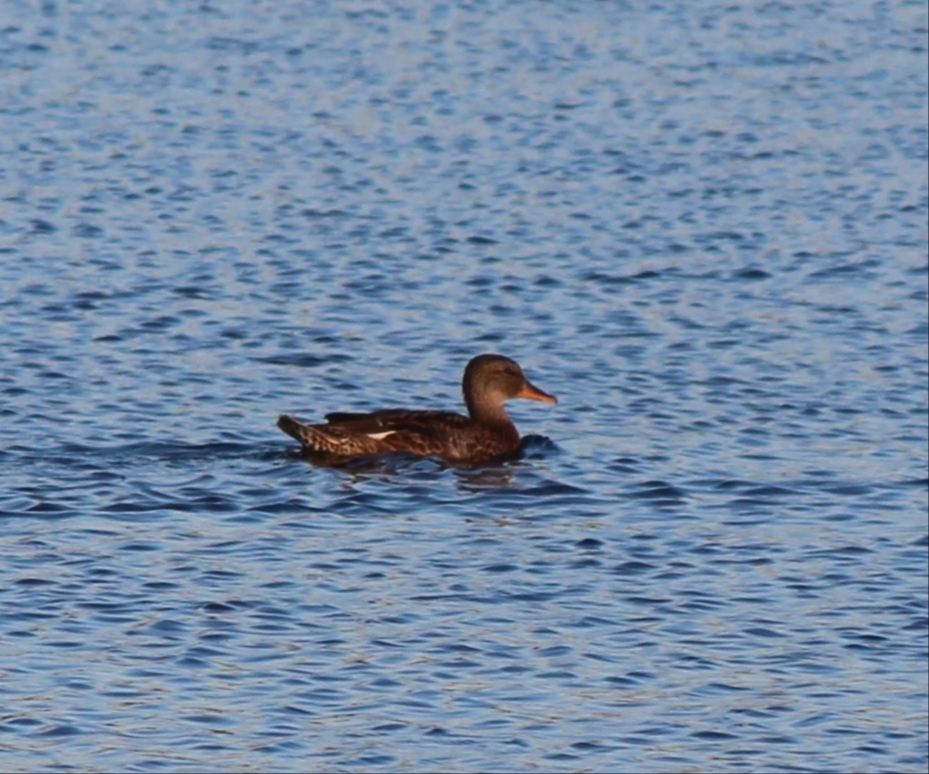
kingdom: Animalia
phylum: Chordata
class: Aves
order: Anseriformes
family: Anatidae
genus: Mareca
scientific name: Mareca strepera
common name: Gadwall
